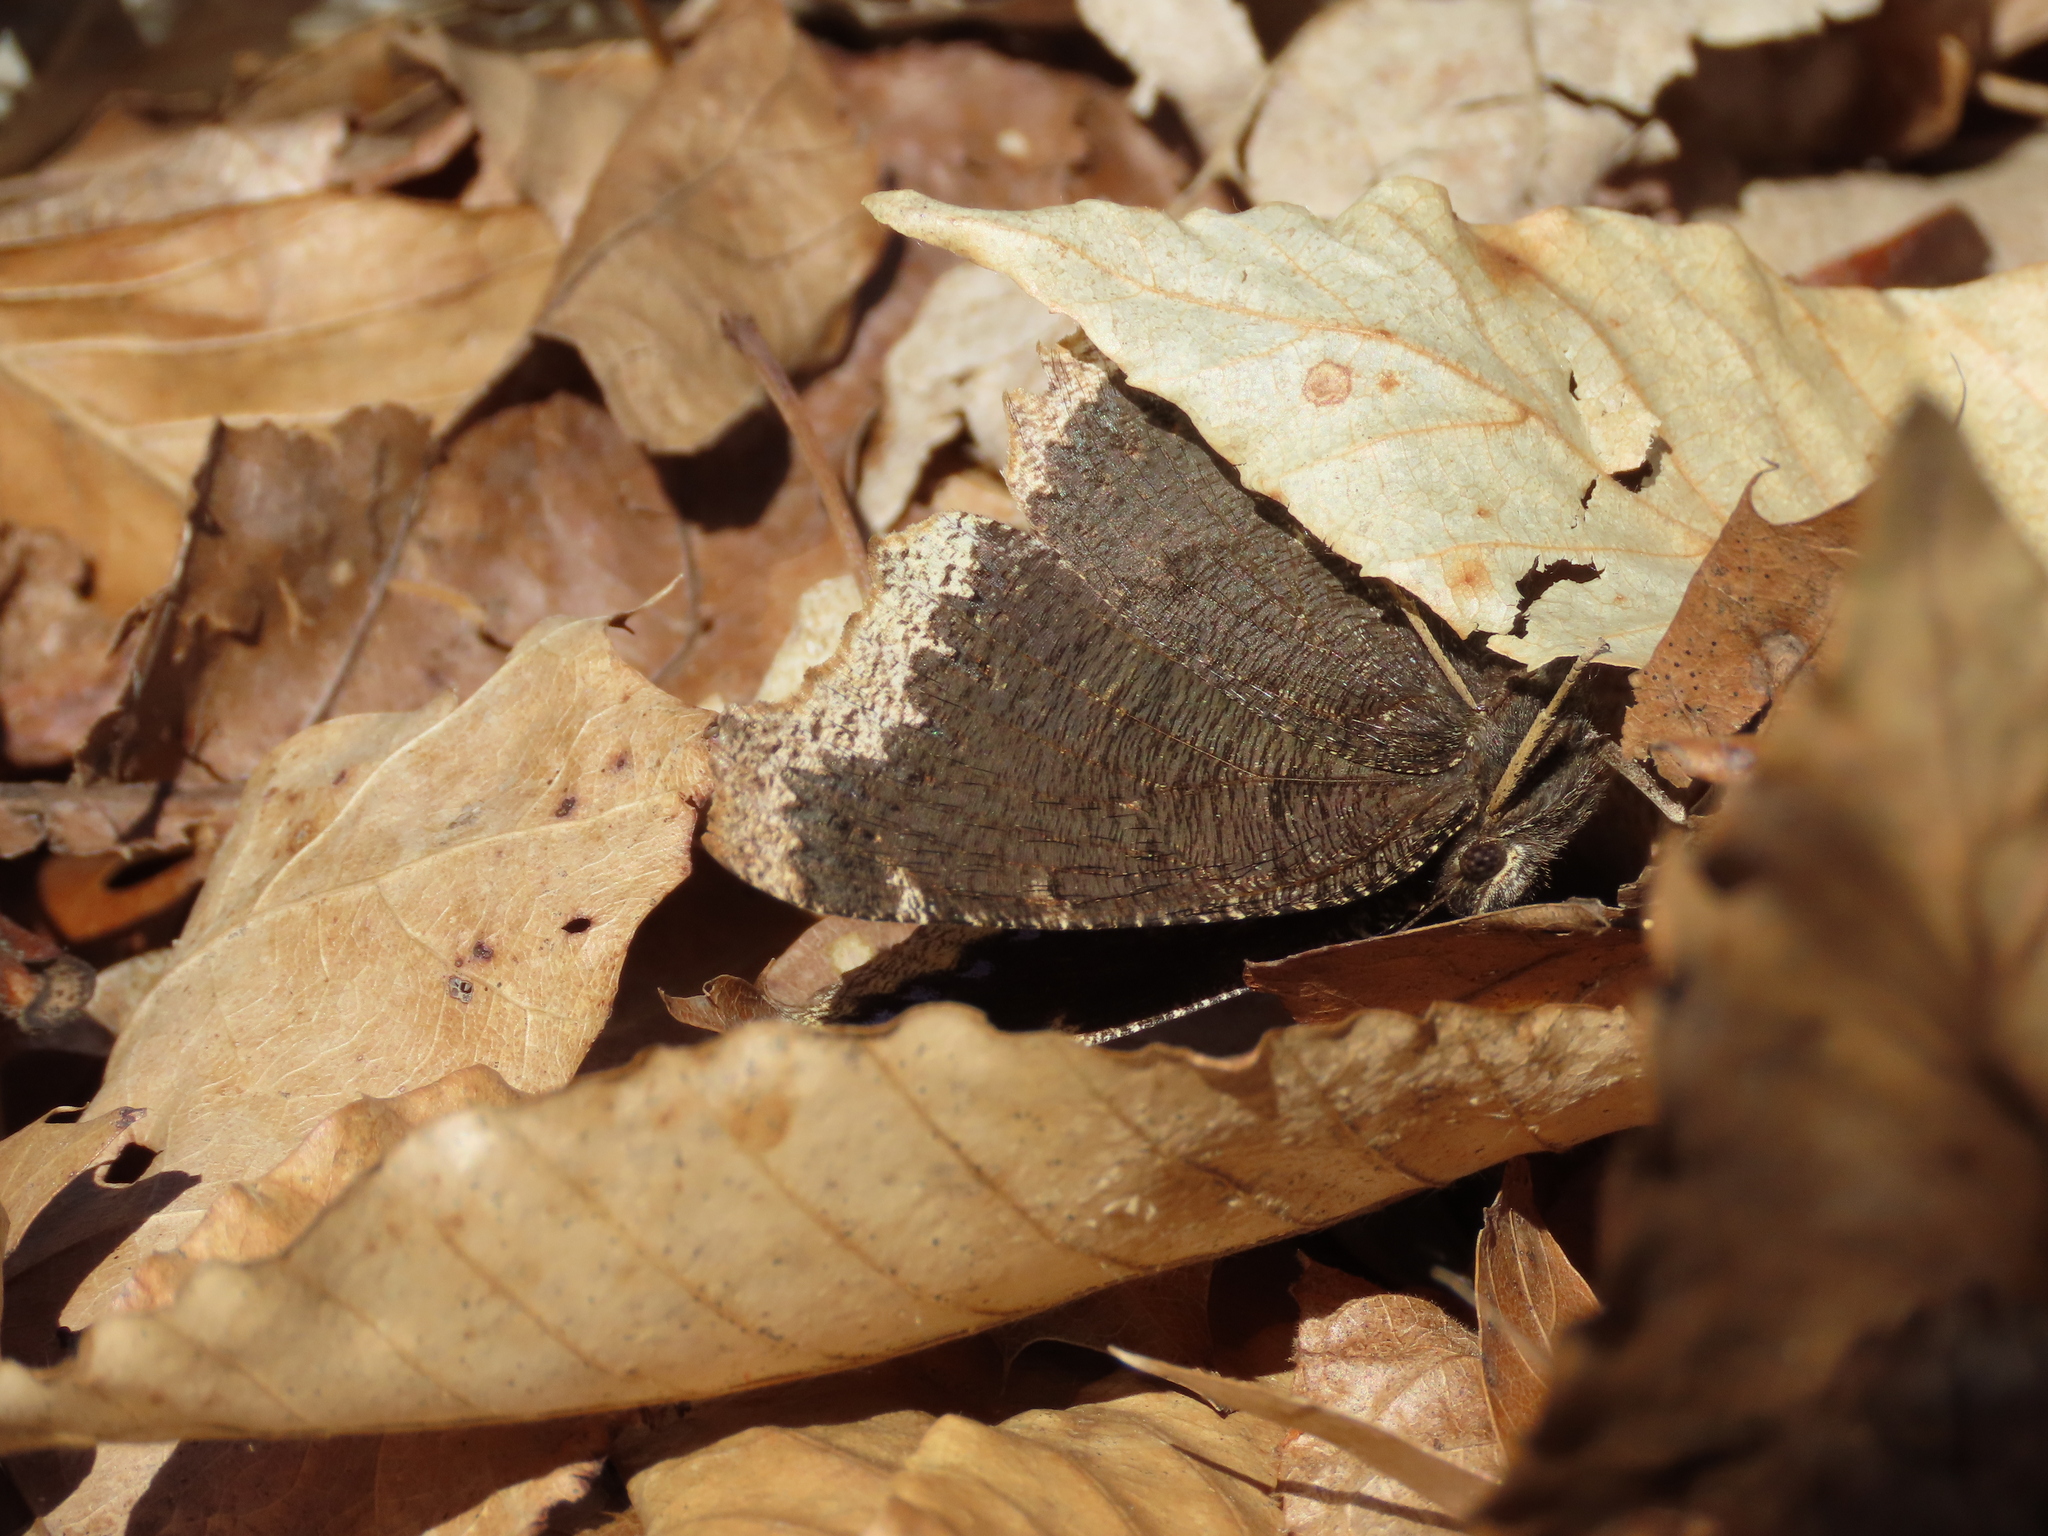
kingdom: Animalia
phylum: Arthropoda
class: Insecta
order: Lepidoptera
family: Nymphalidae
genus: Nymphalis
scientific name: Nymphalis antiopa
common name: Camberwell beauty
